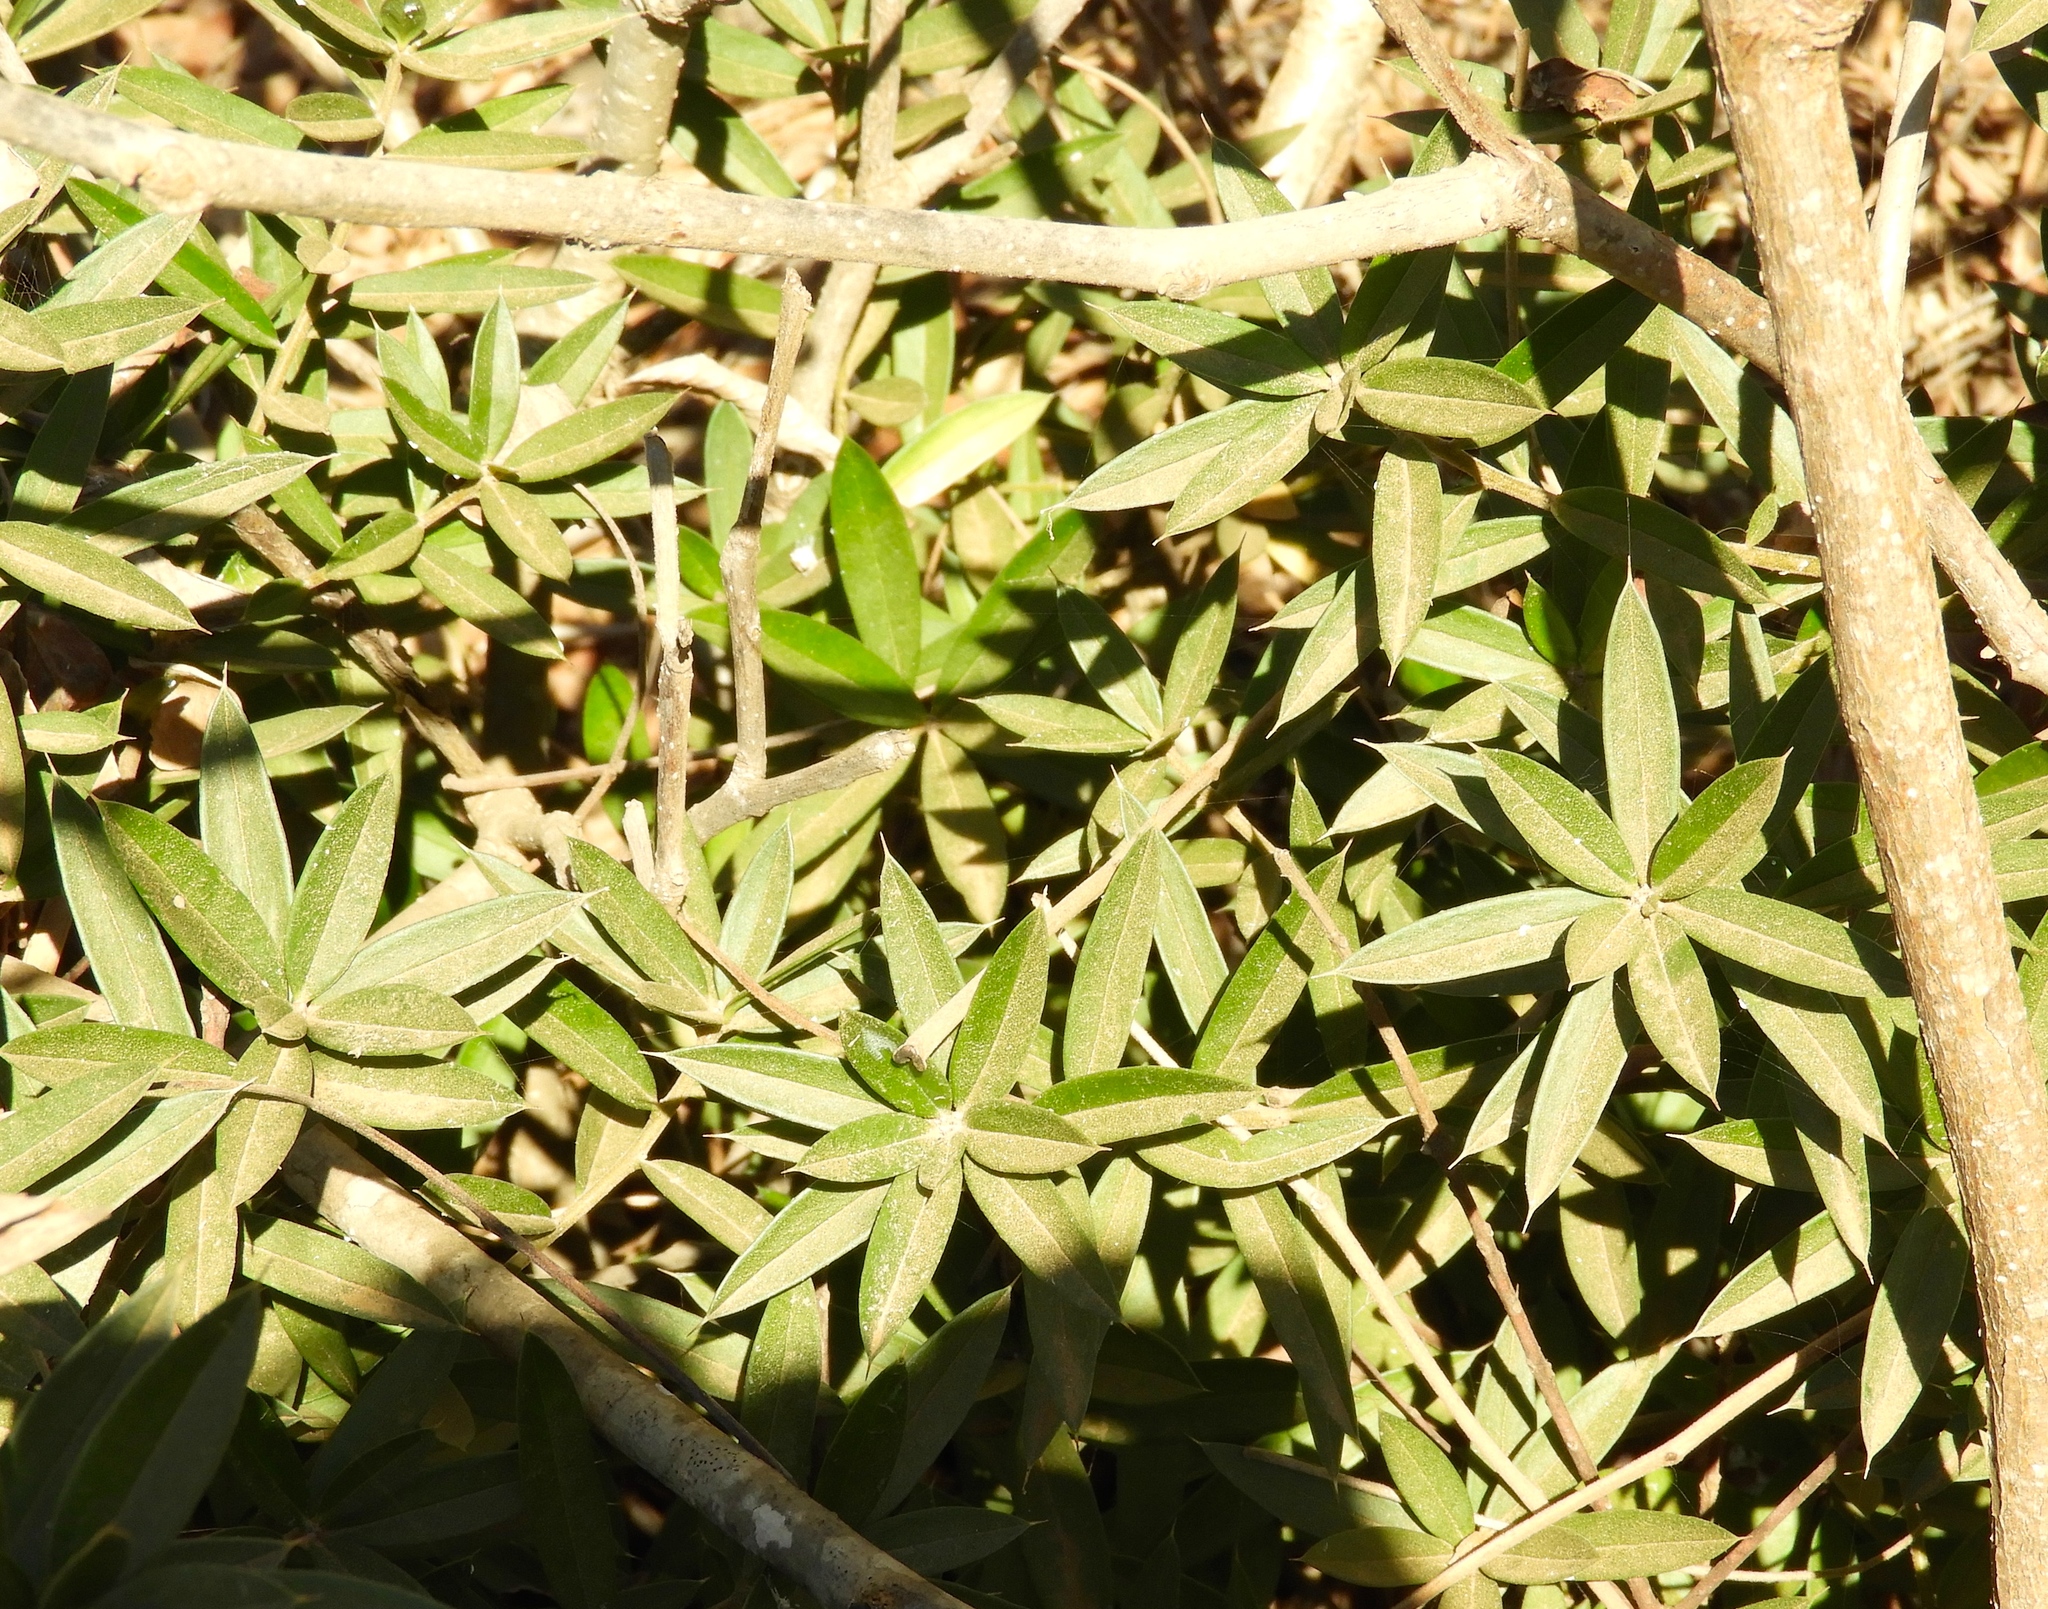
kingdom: Plantae
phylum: Tracheophyta
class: Magnoliopsida
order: Ericales
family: Primulaceae
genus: Bonellia
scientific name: Bonellia macrocarpa
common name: Primrose
